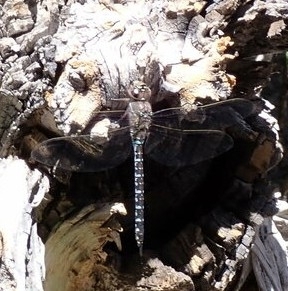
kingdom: Animalia
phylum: Arthropoda
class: Insecta
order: Odonata
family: Aeshnidae
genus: Aeshna
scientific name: Aeshna interrupta
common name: Variable darner
